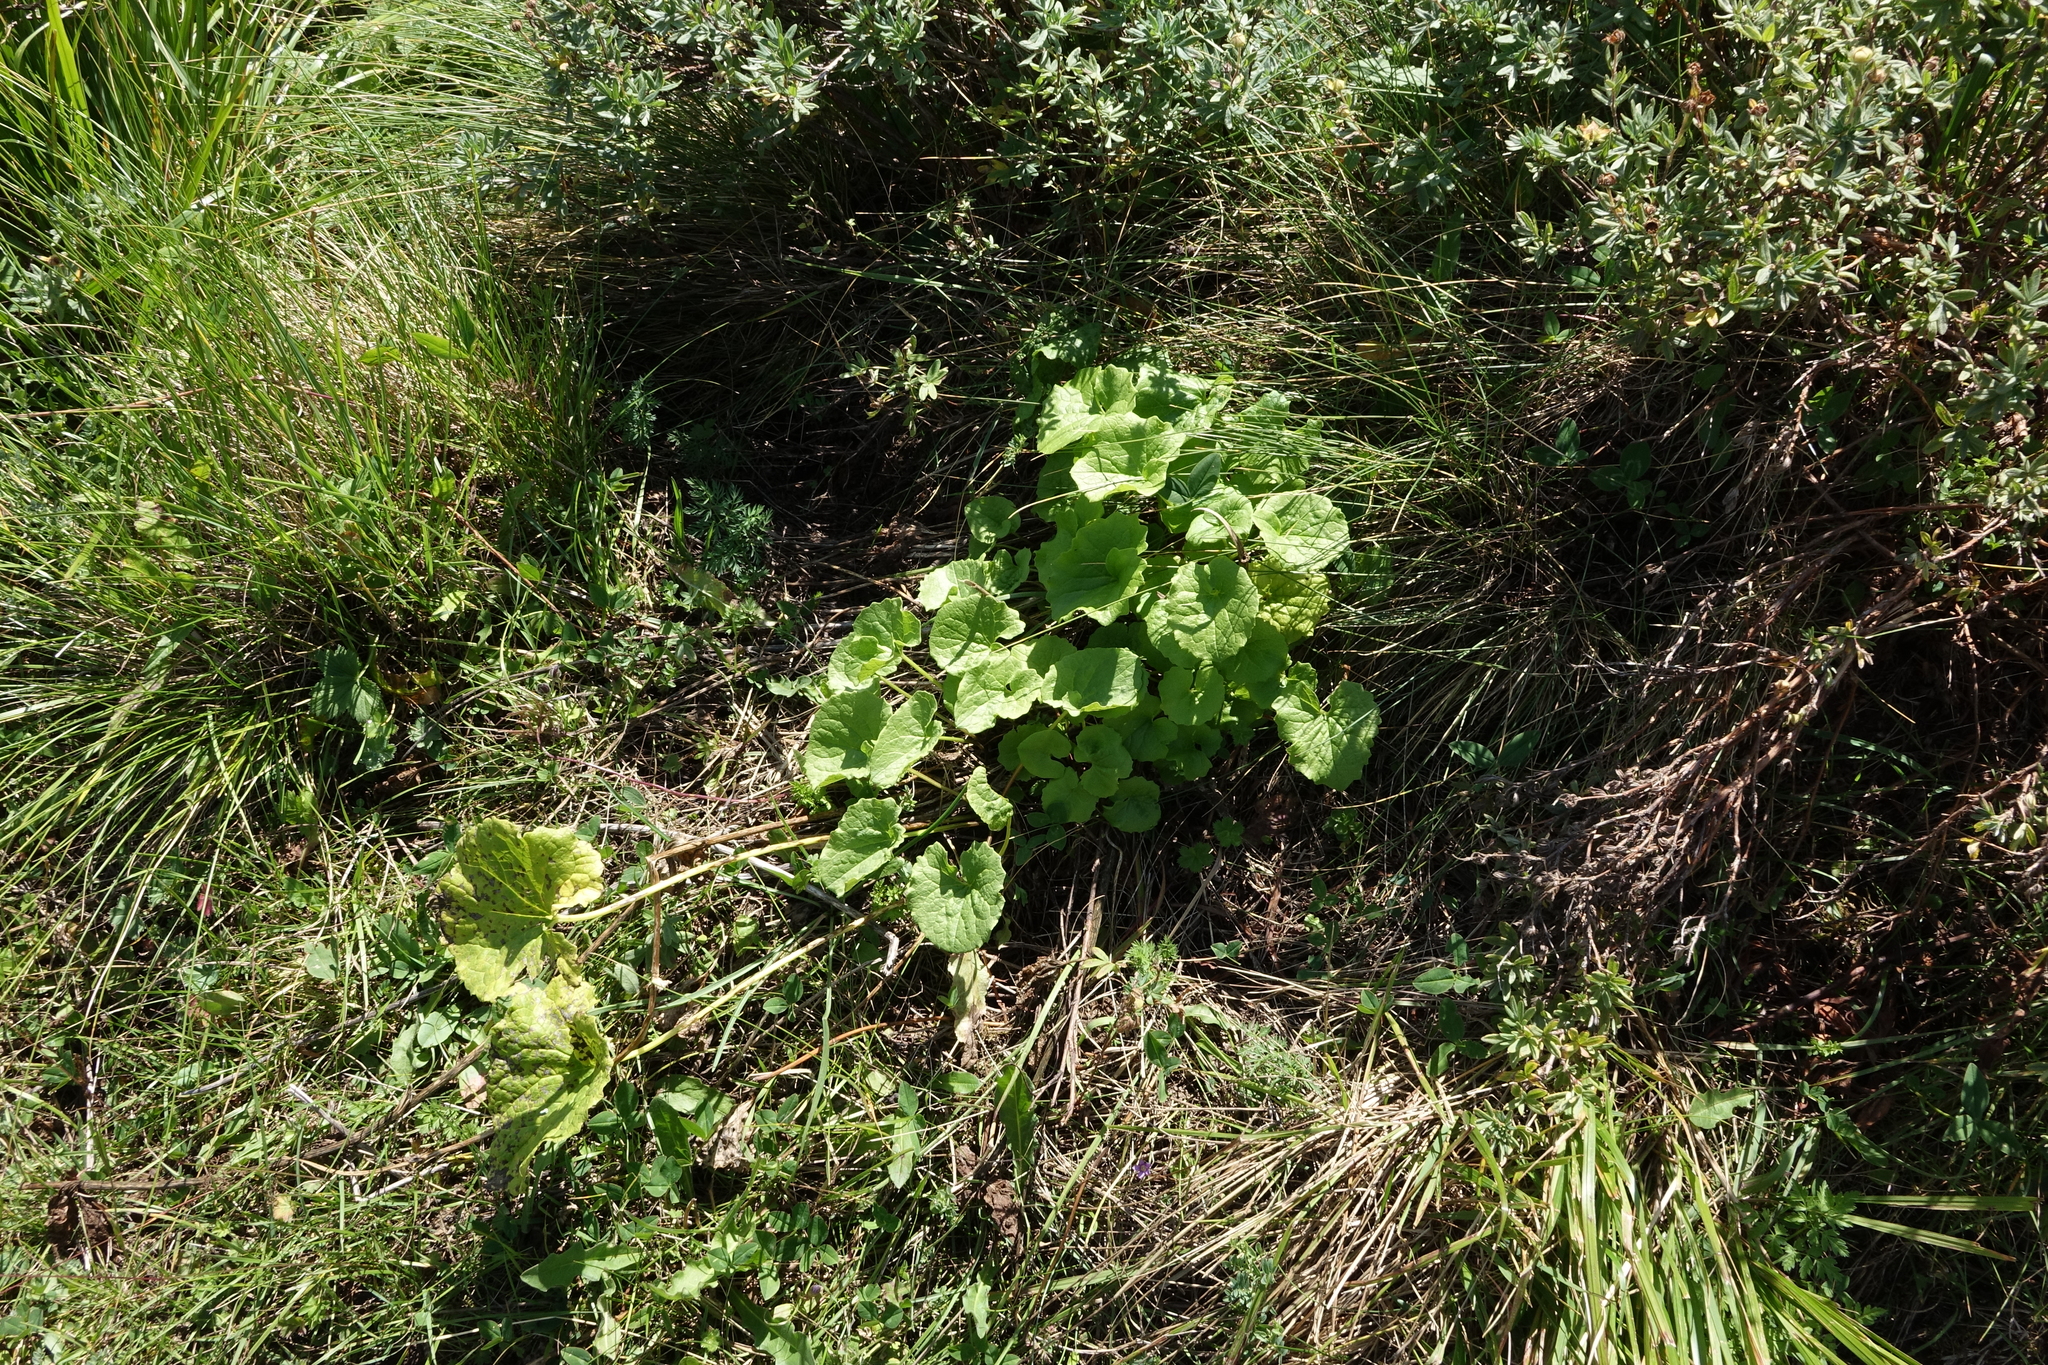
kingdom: Plantae
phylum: Tracheophyta
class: Magnoliopsida
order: Dipsacales
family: Caprifoliaceae
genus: Valeriana
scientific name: Valeriana alliariifolia
